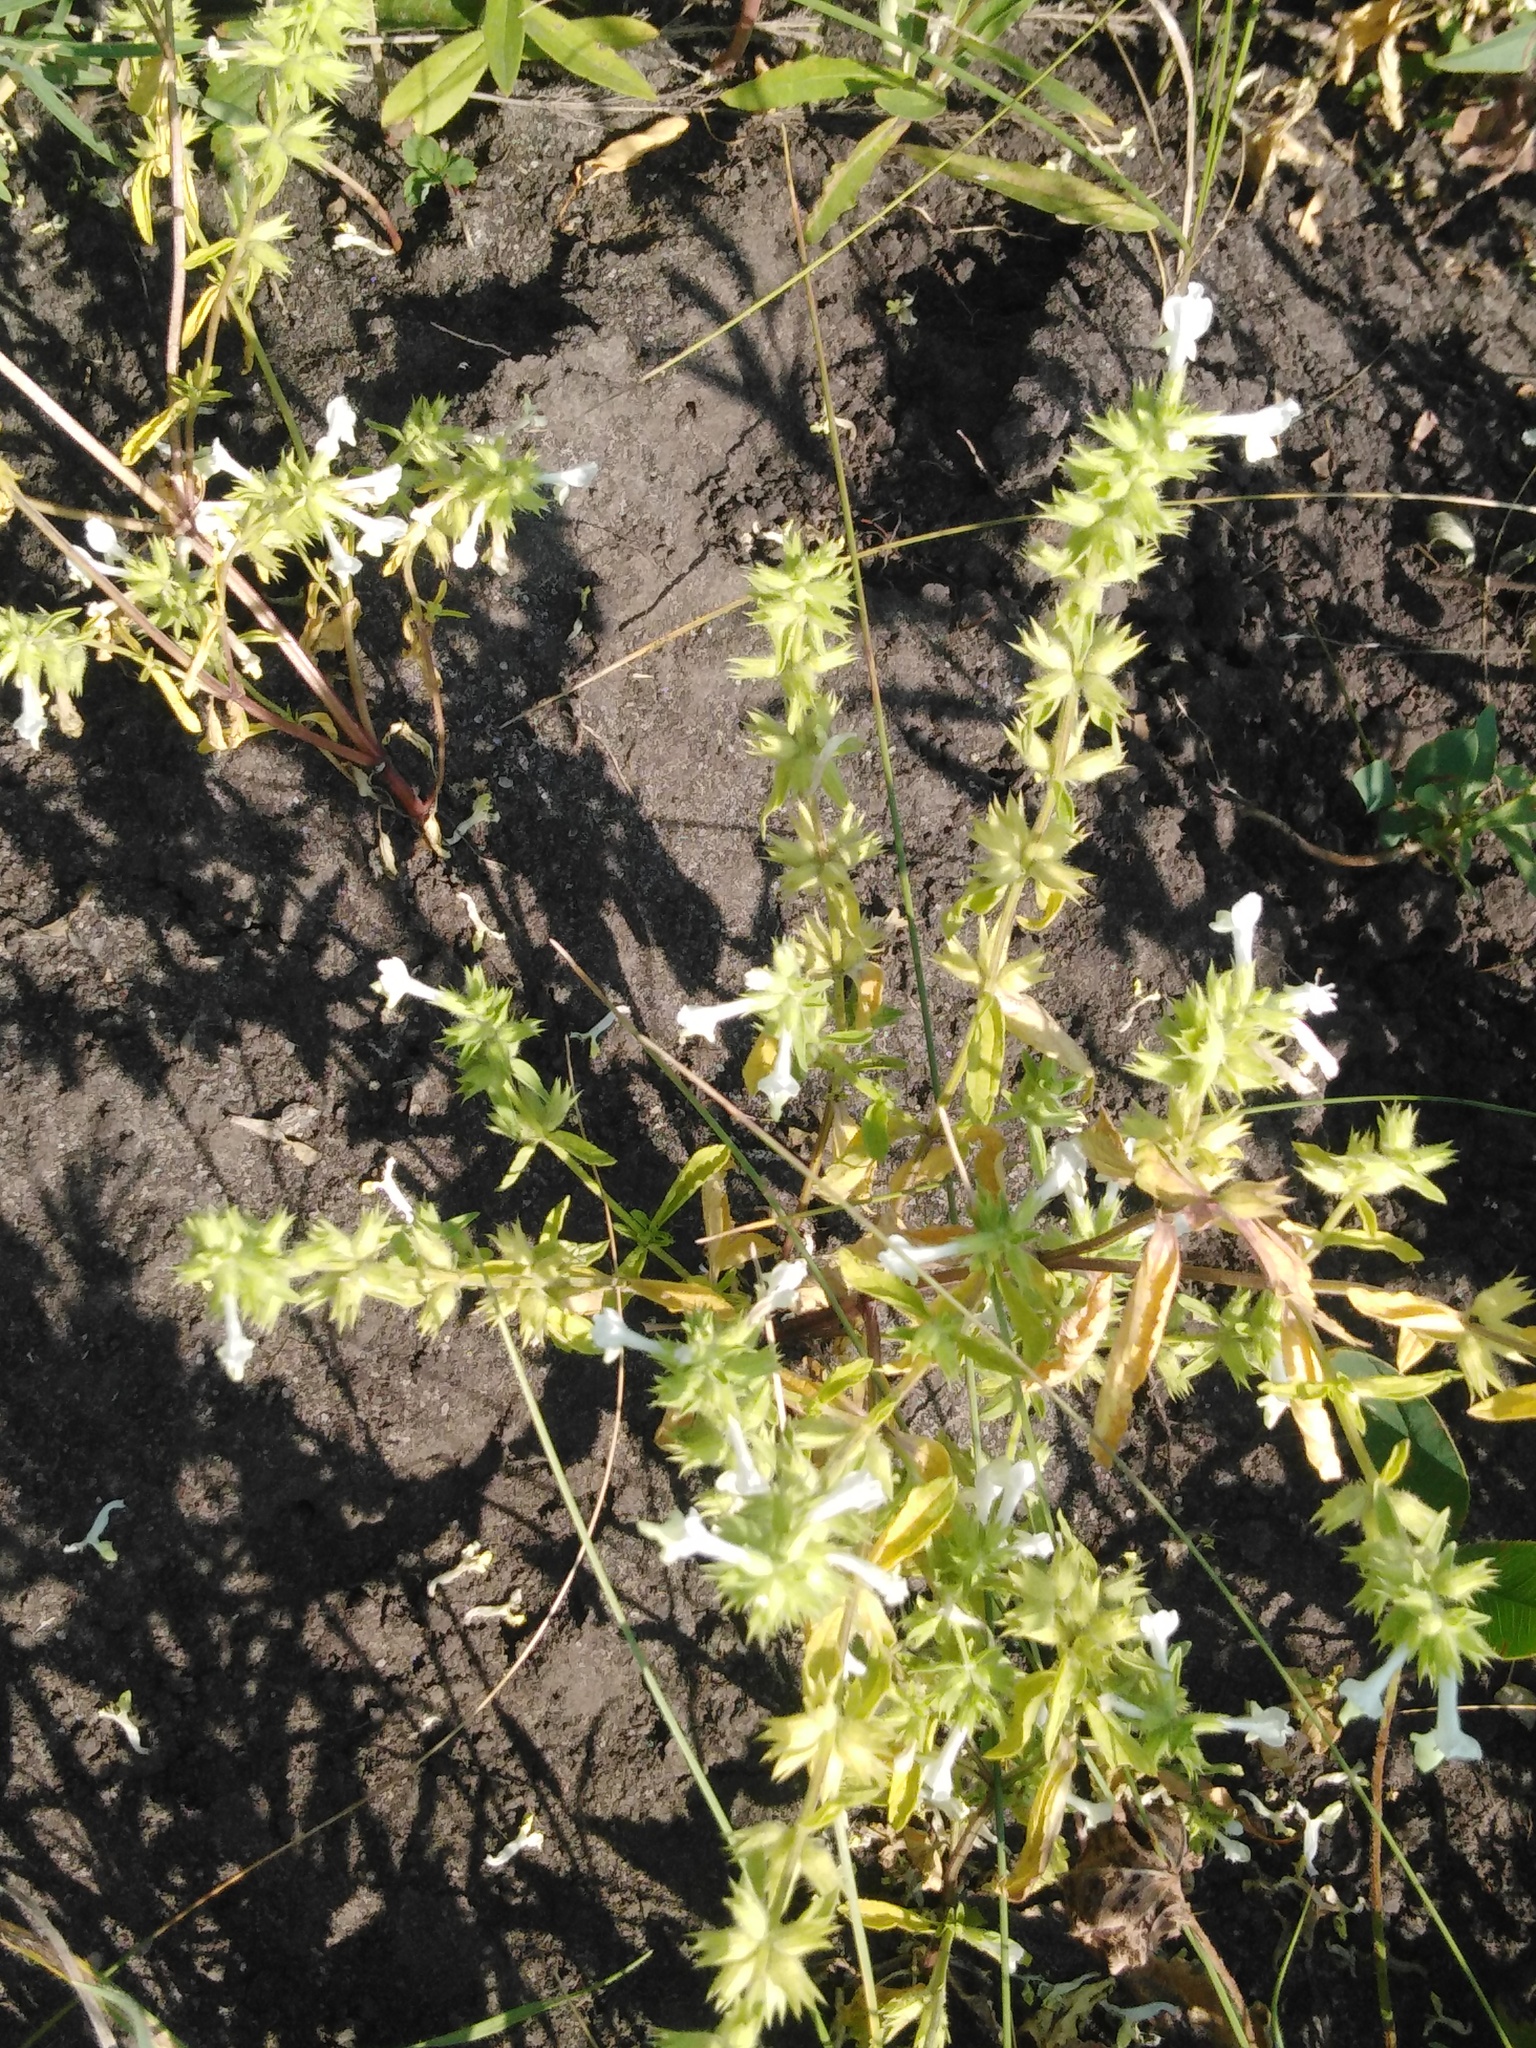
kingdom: Plantae
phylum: Tracheophyta
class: Magnoliopsida
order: Lamiales
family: Lamiaceae
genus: Stachys
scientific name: Stachys annua
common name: Annual yellow-woundwort
